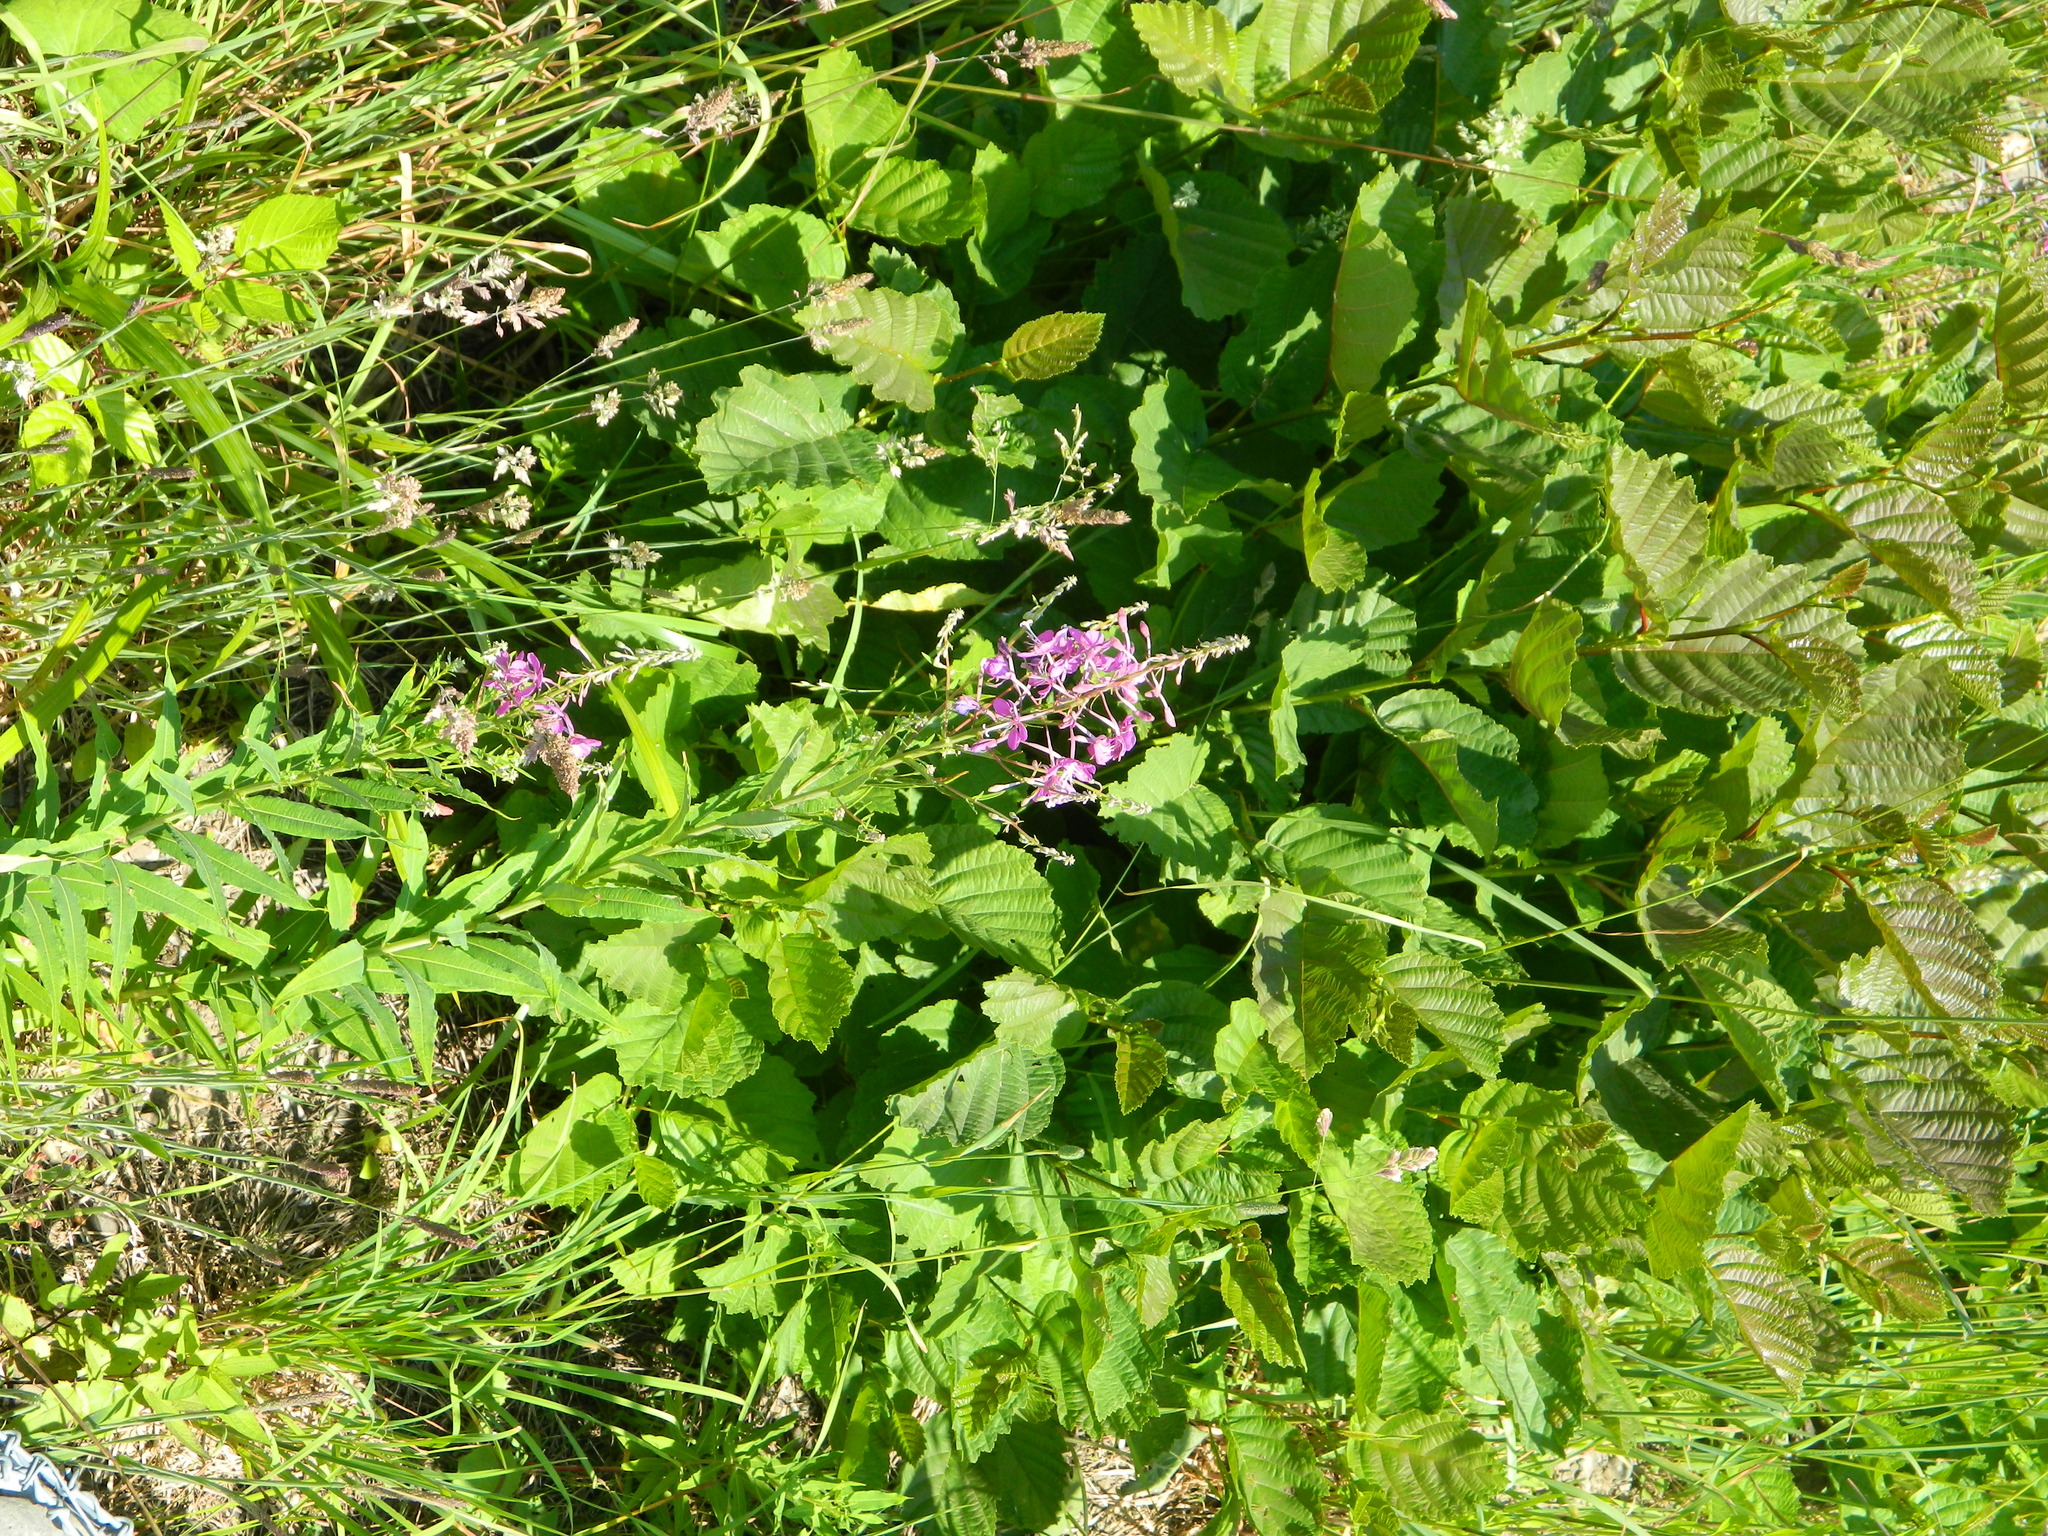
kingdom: Plantae
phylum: Tracheophyta
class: Magnoliopsida
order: Myrtales
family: Onagraceae
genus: Chamaenerion
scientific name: Chamaenerion angustifolium
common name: Fireweed
